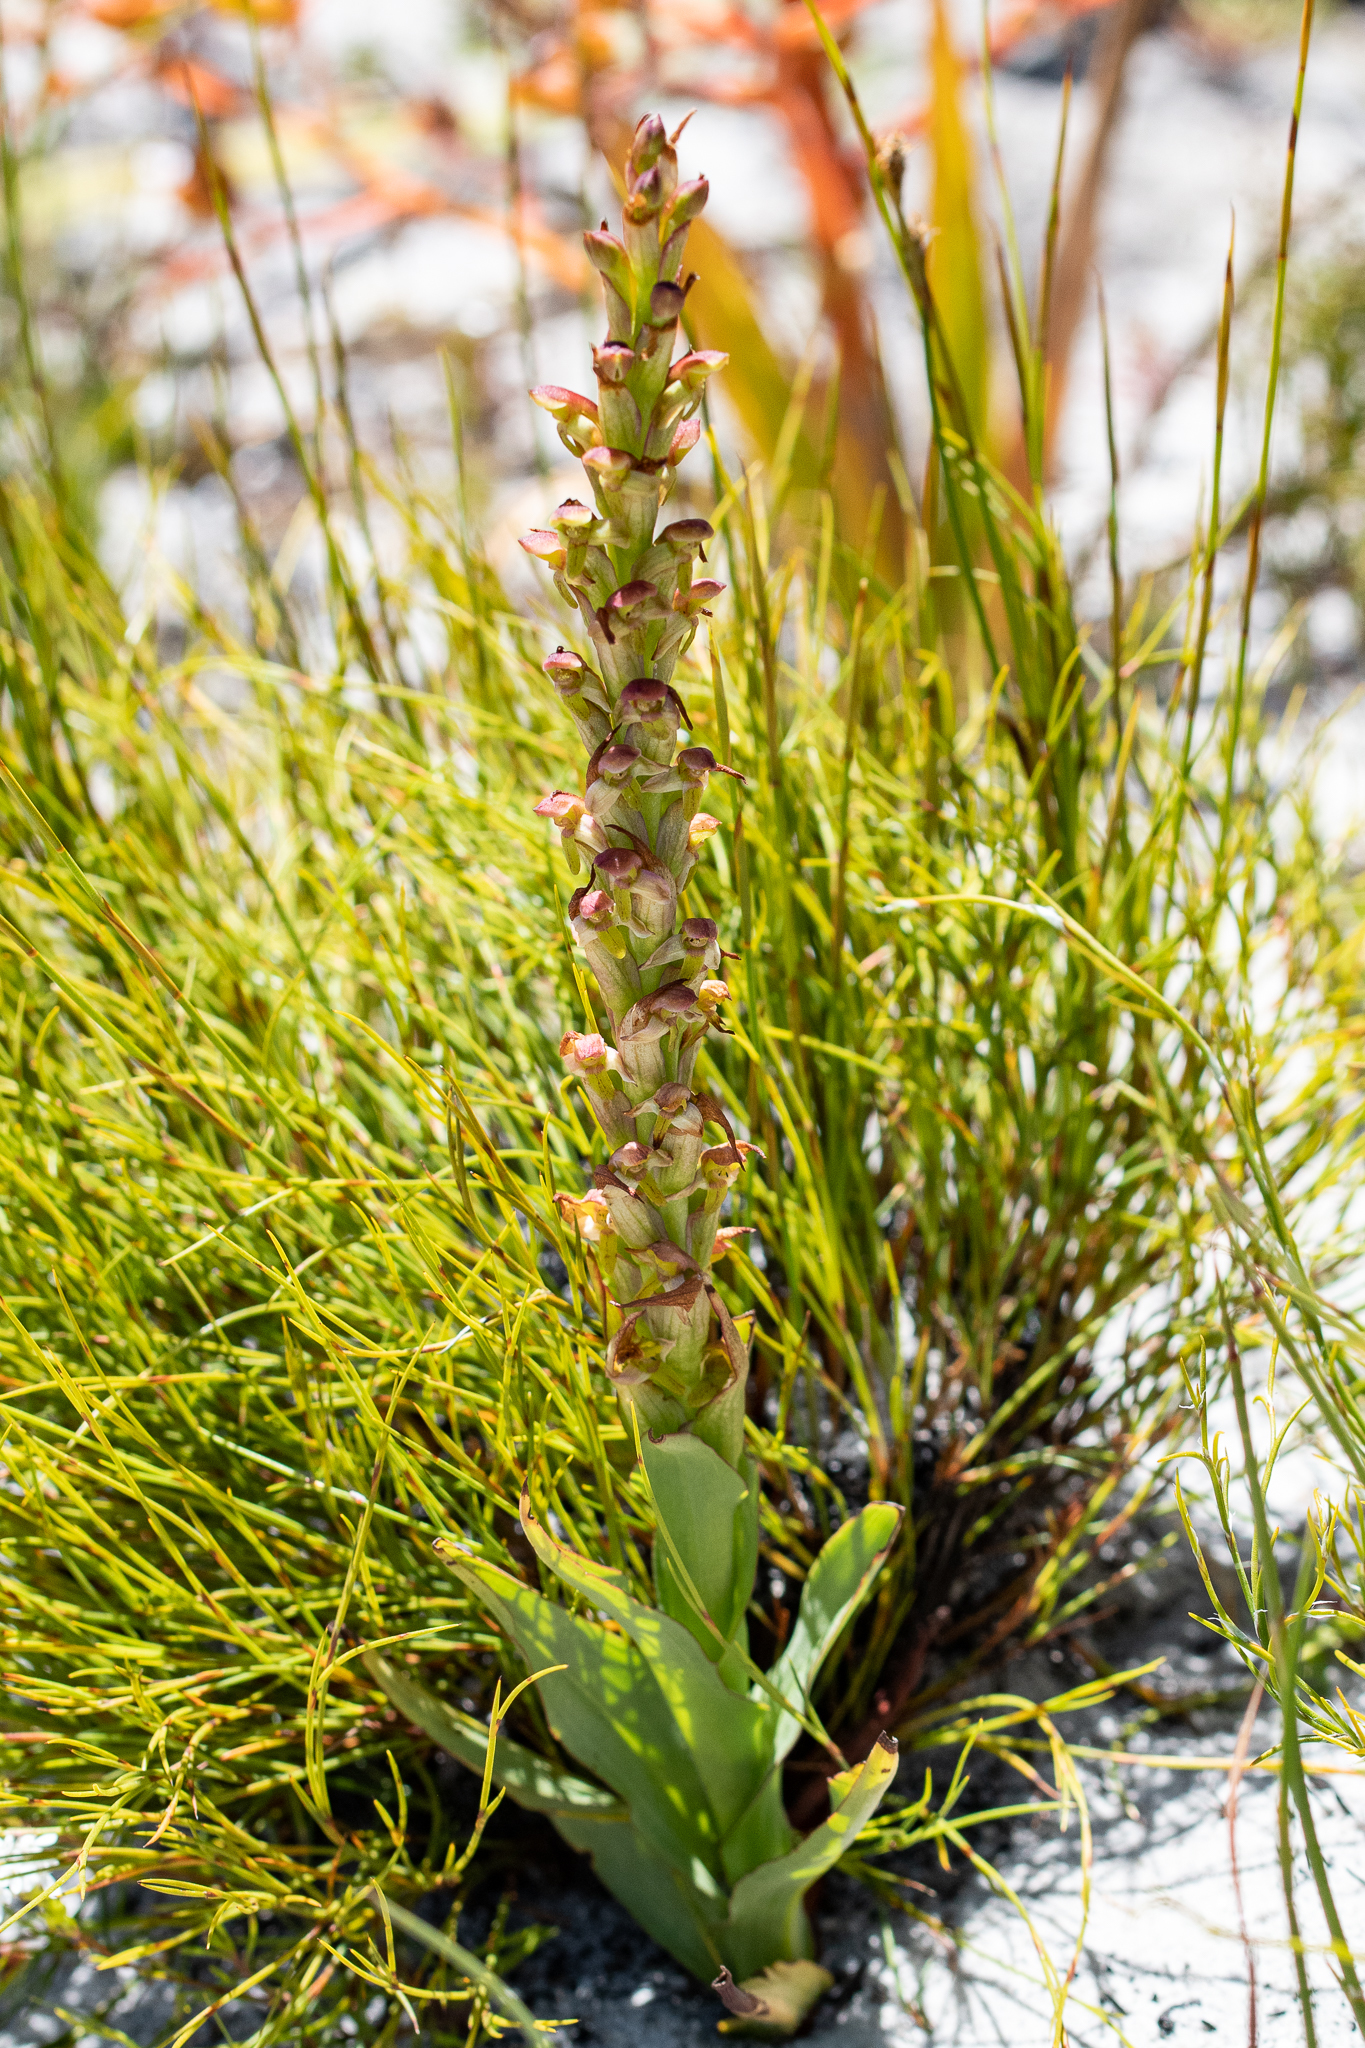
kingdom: Plantae
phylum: Tracheophyta
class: Liliopsida
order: Asparagales
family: Orchidaceae
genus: Disa
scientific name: Disa reticulata
